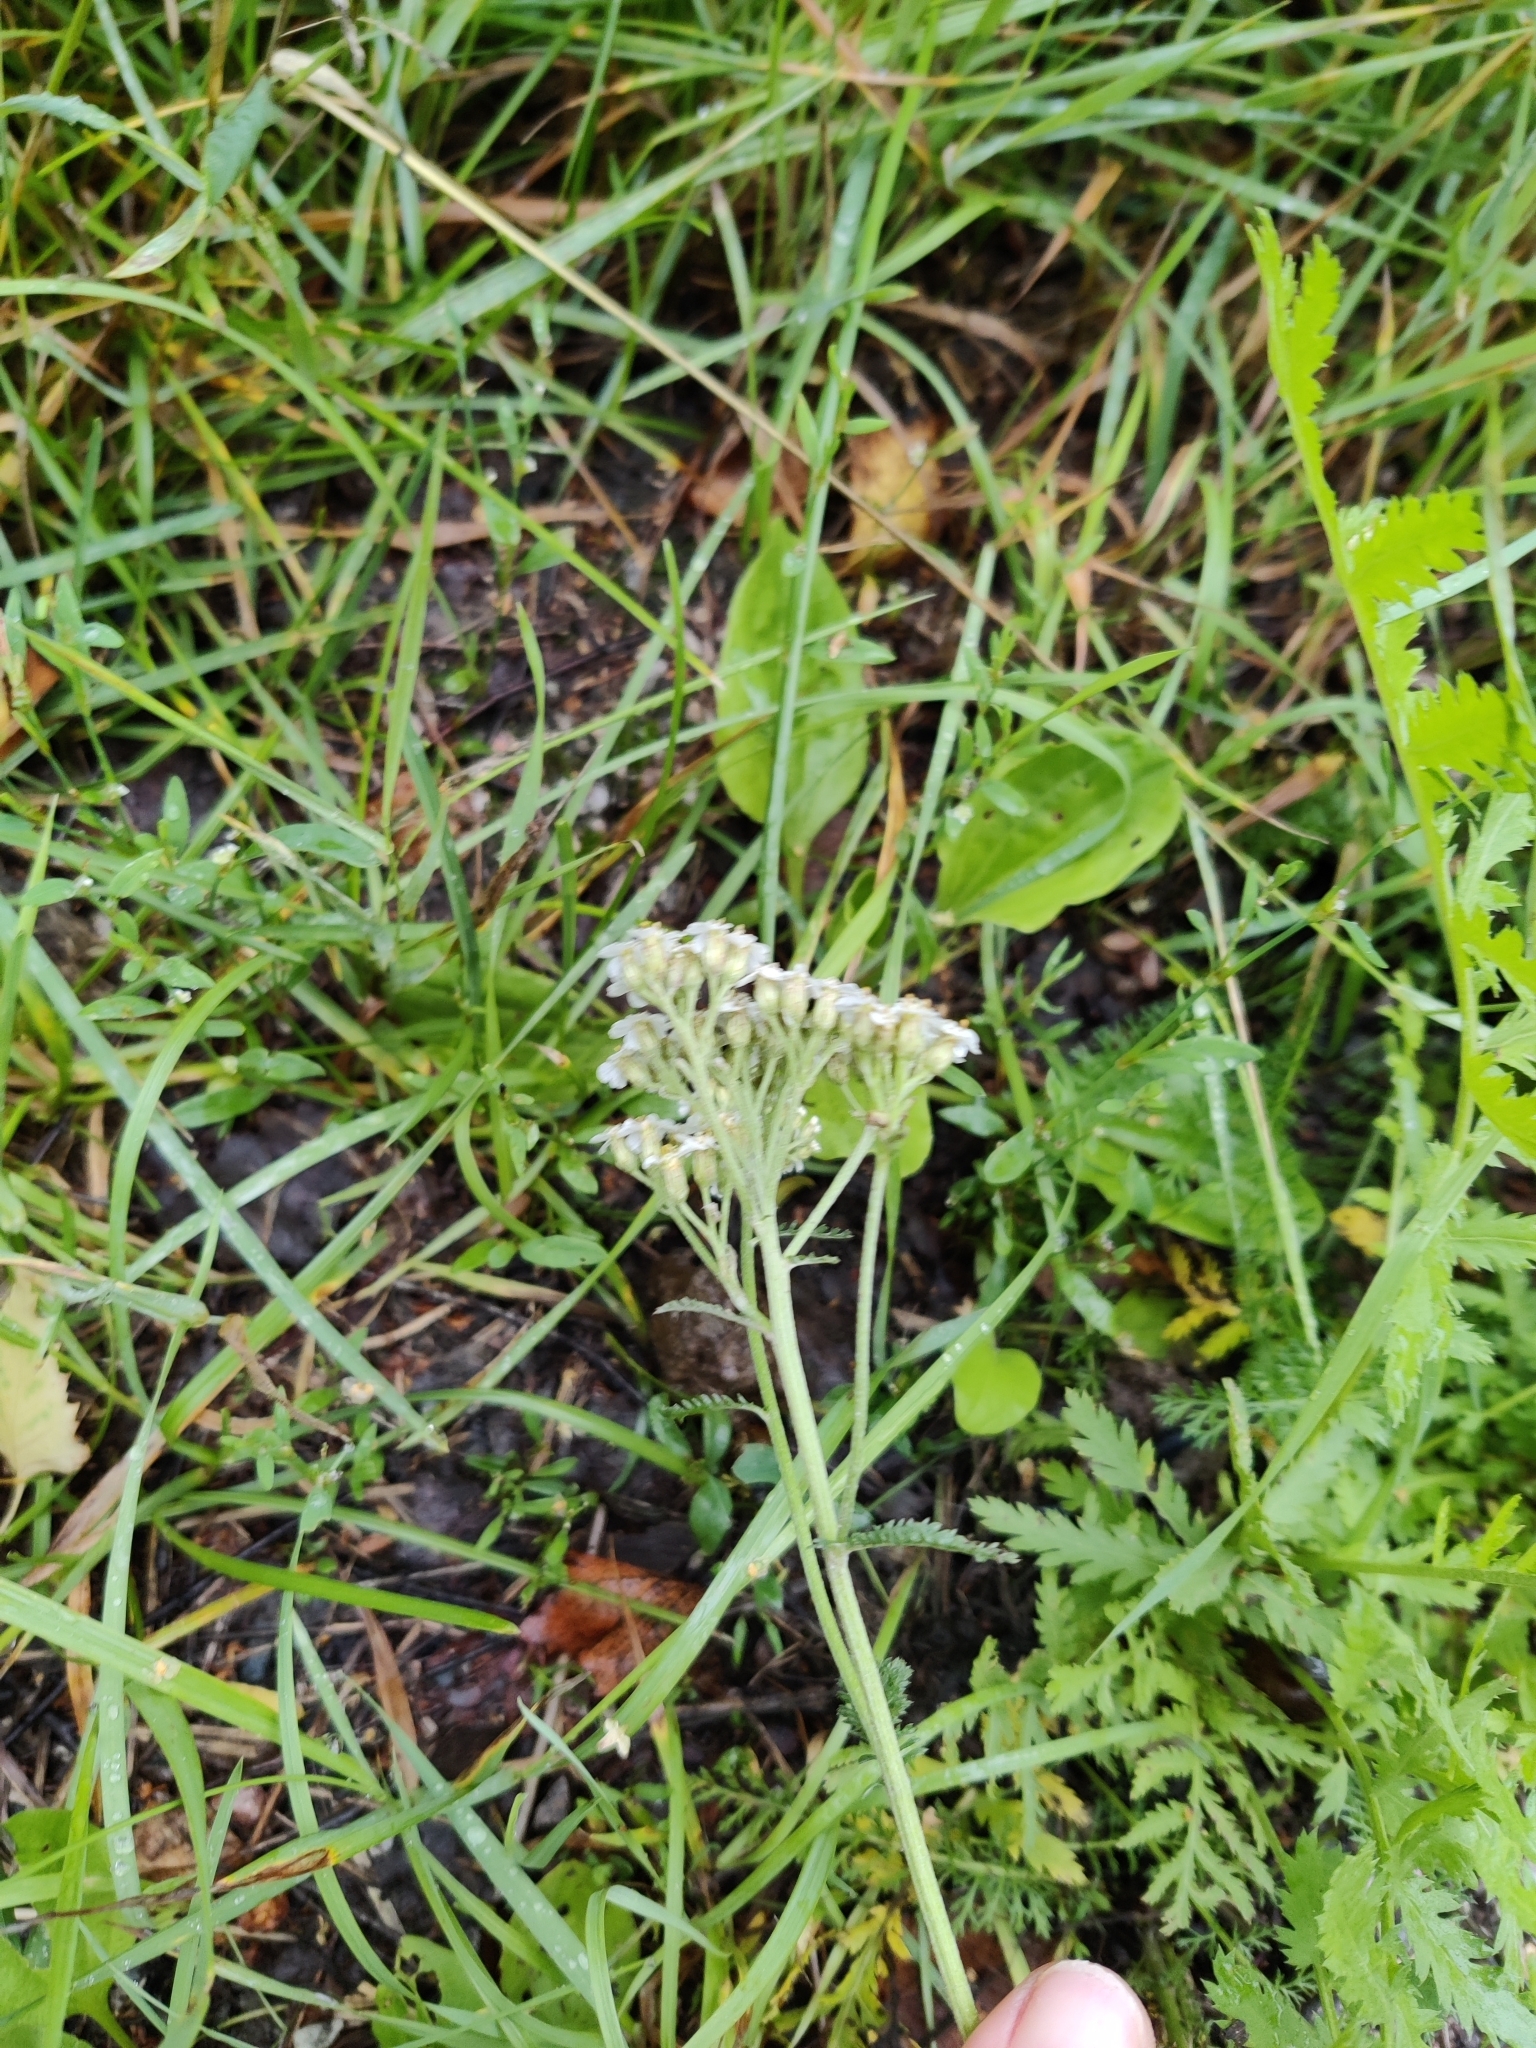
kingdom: Plantae
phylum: Tracheophyta
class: Magnoliopsida
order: Asterales
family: Asteraceae
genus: Achillea
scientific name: Achillea millefolium
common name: Yarrow
